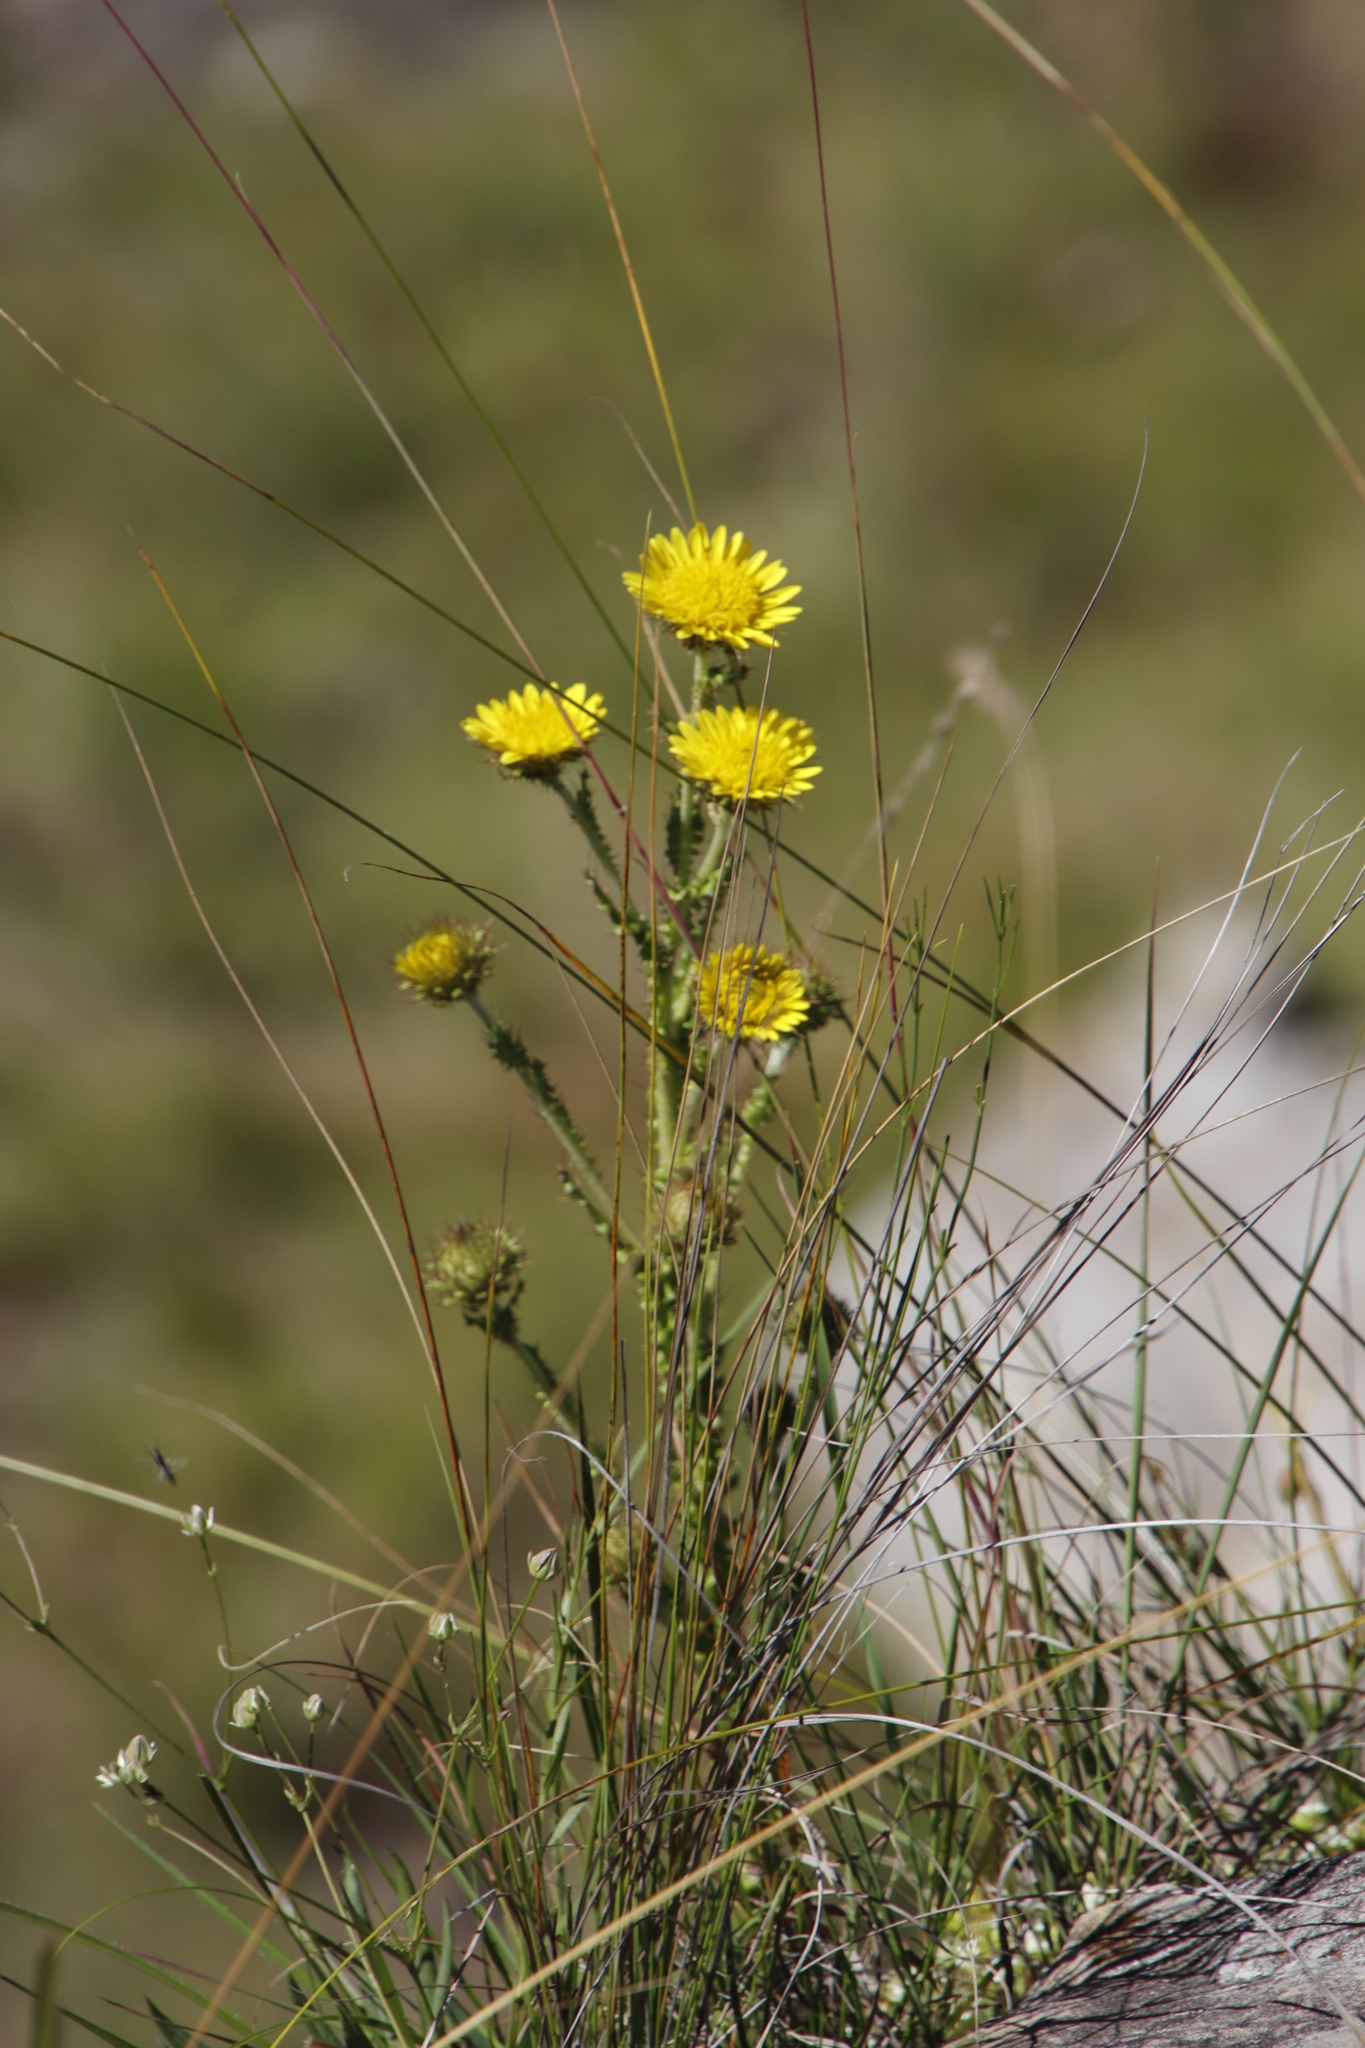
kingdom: Plantae
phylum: Tracheophyta
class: Magnoliopsida
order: Asterales
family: Asteraceae
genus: Berkheya
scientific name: Berkheya multijuga
